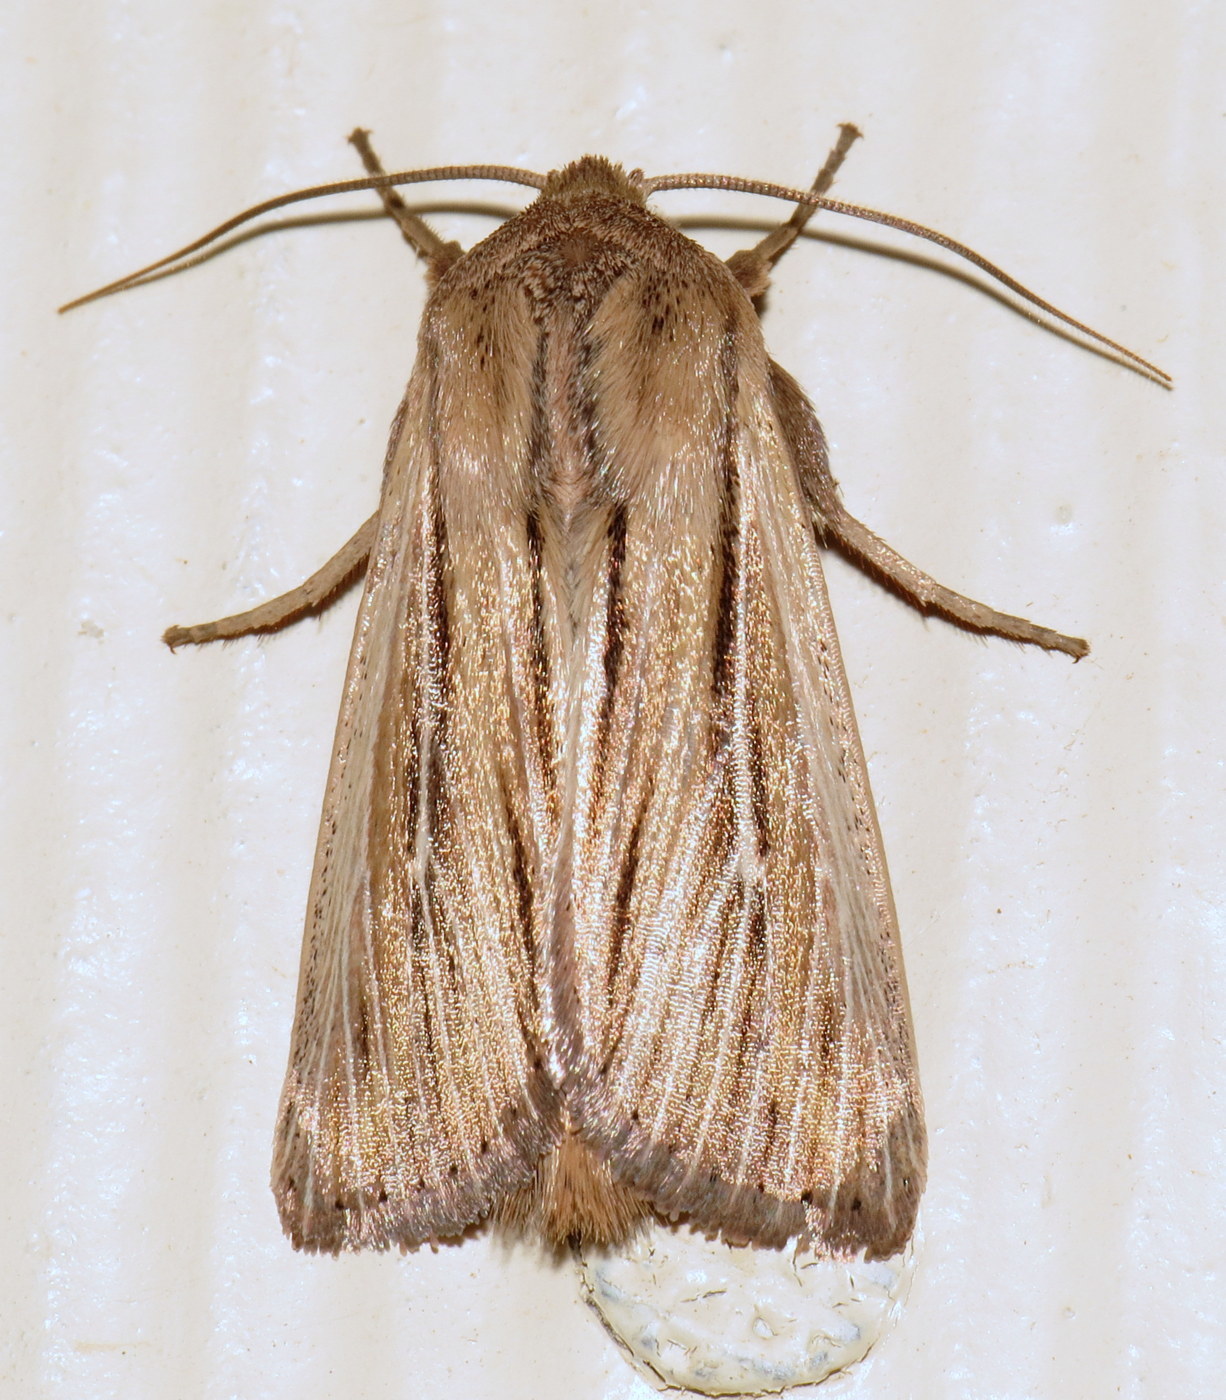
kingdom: Animalia
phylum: Arthropoda
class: Insecta
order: Lepidoptera
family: Noctuidae
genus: Leucania
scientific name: Leucania commoides
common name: Two-lined wainscot
